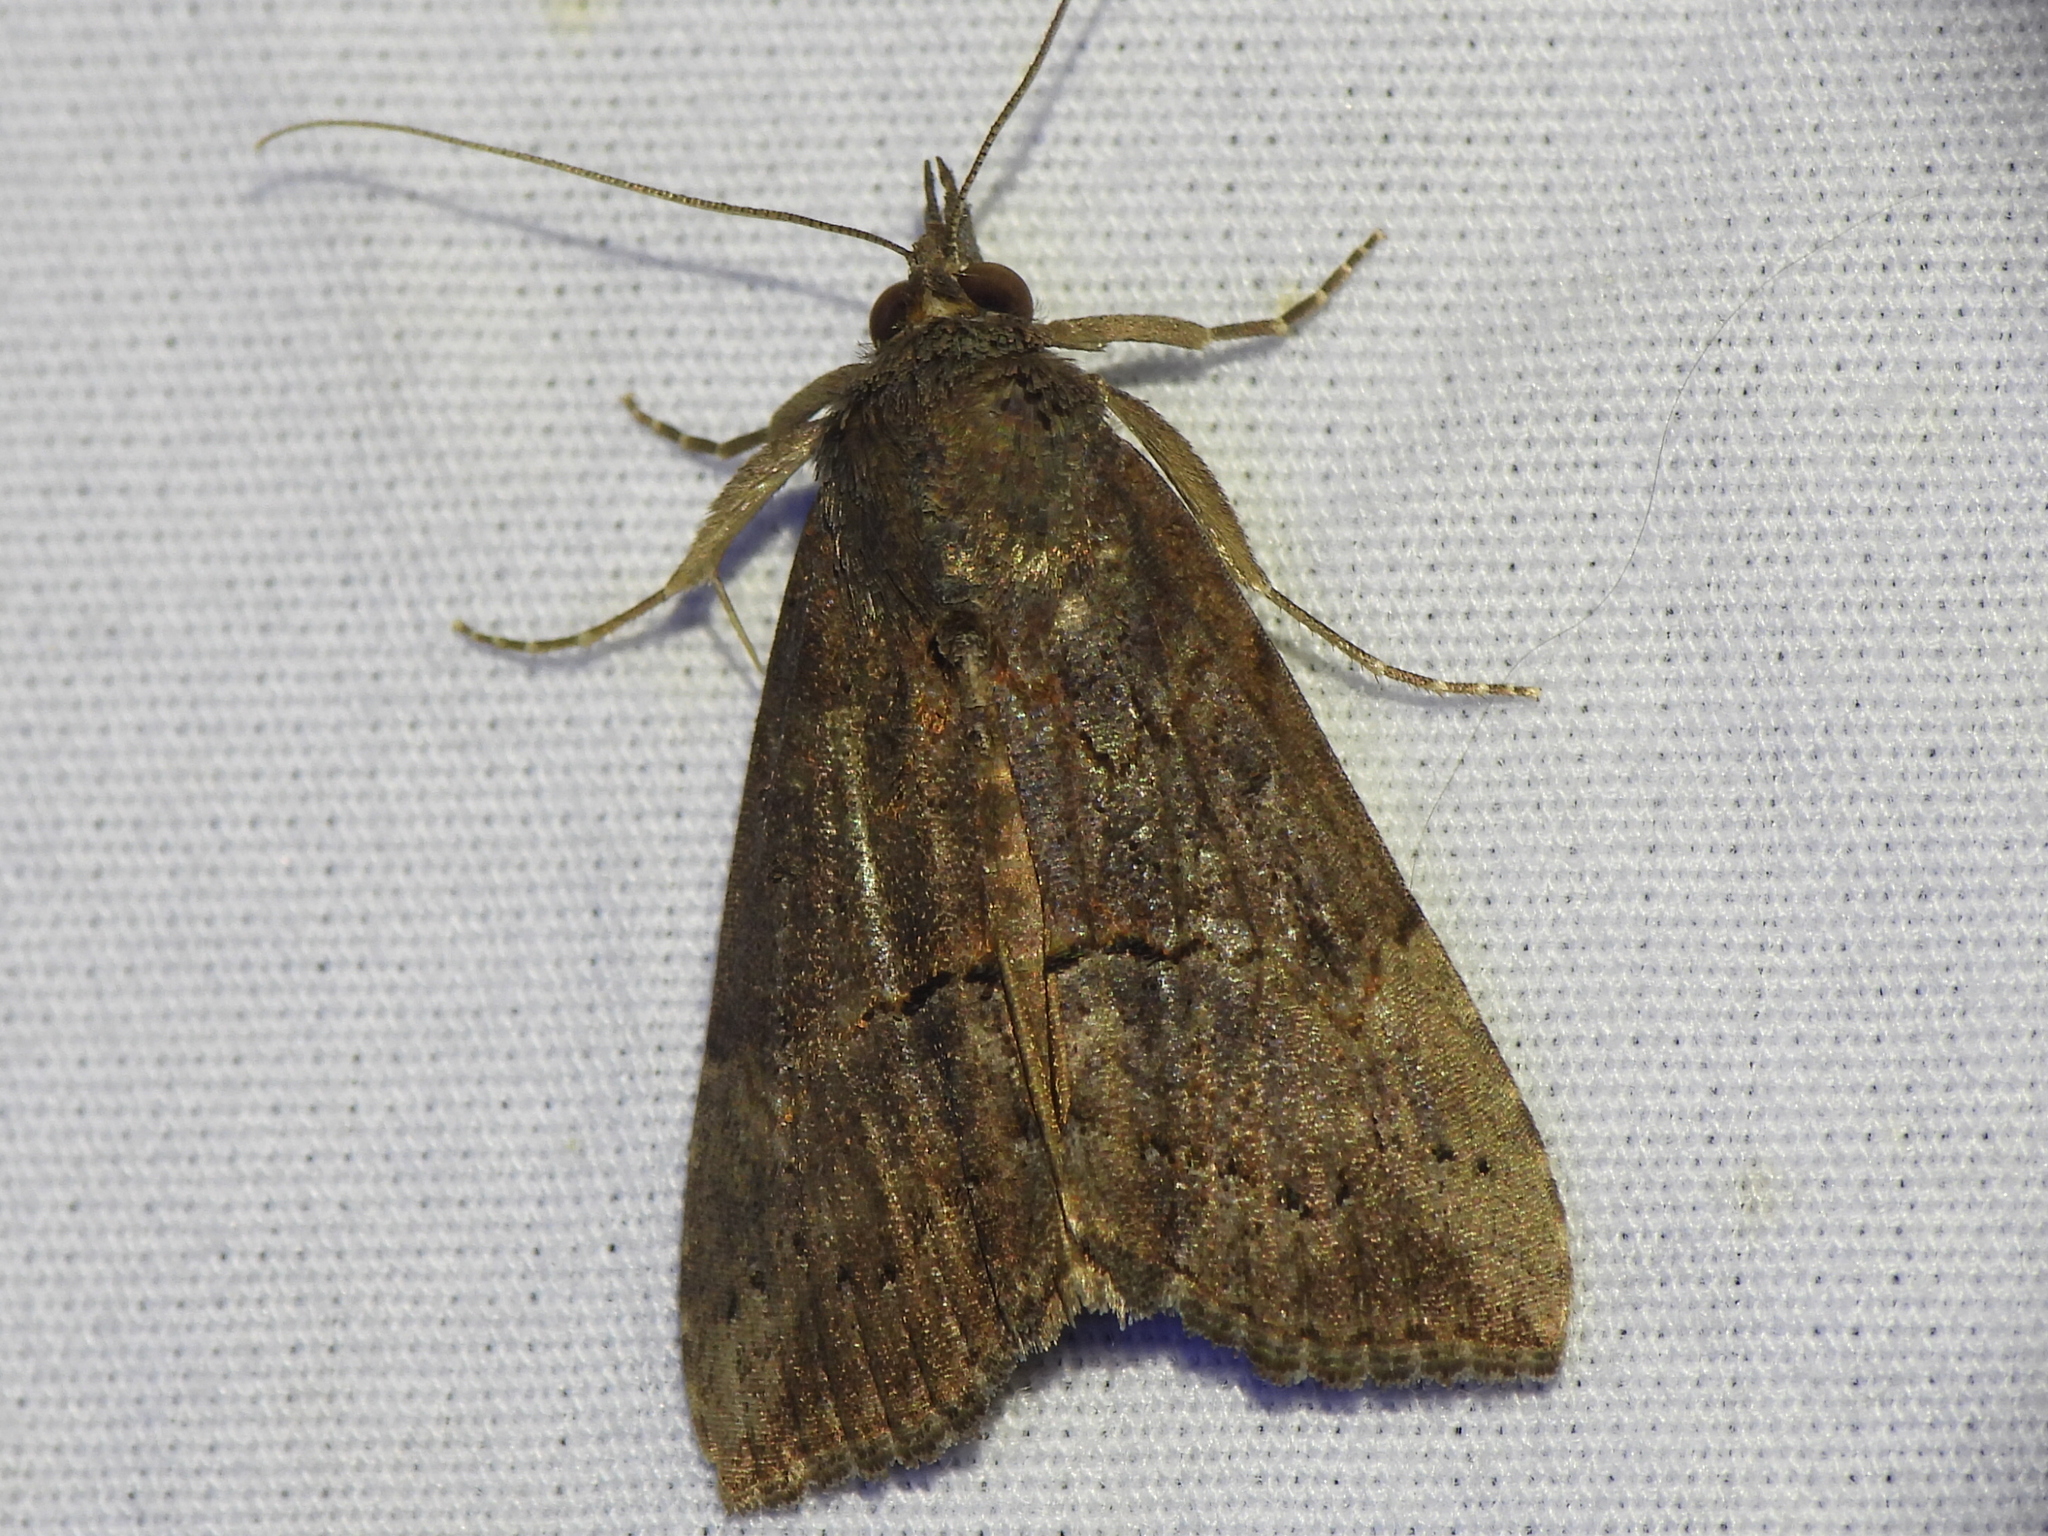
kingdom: Animalia
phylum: Arthropoda
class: Insecta
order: Lepidoptera
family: Erebidae
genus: Hypena
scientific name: Hypena scabra
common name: Green cloverworm
